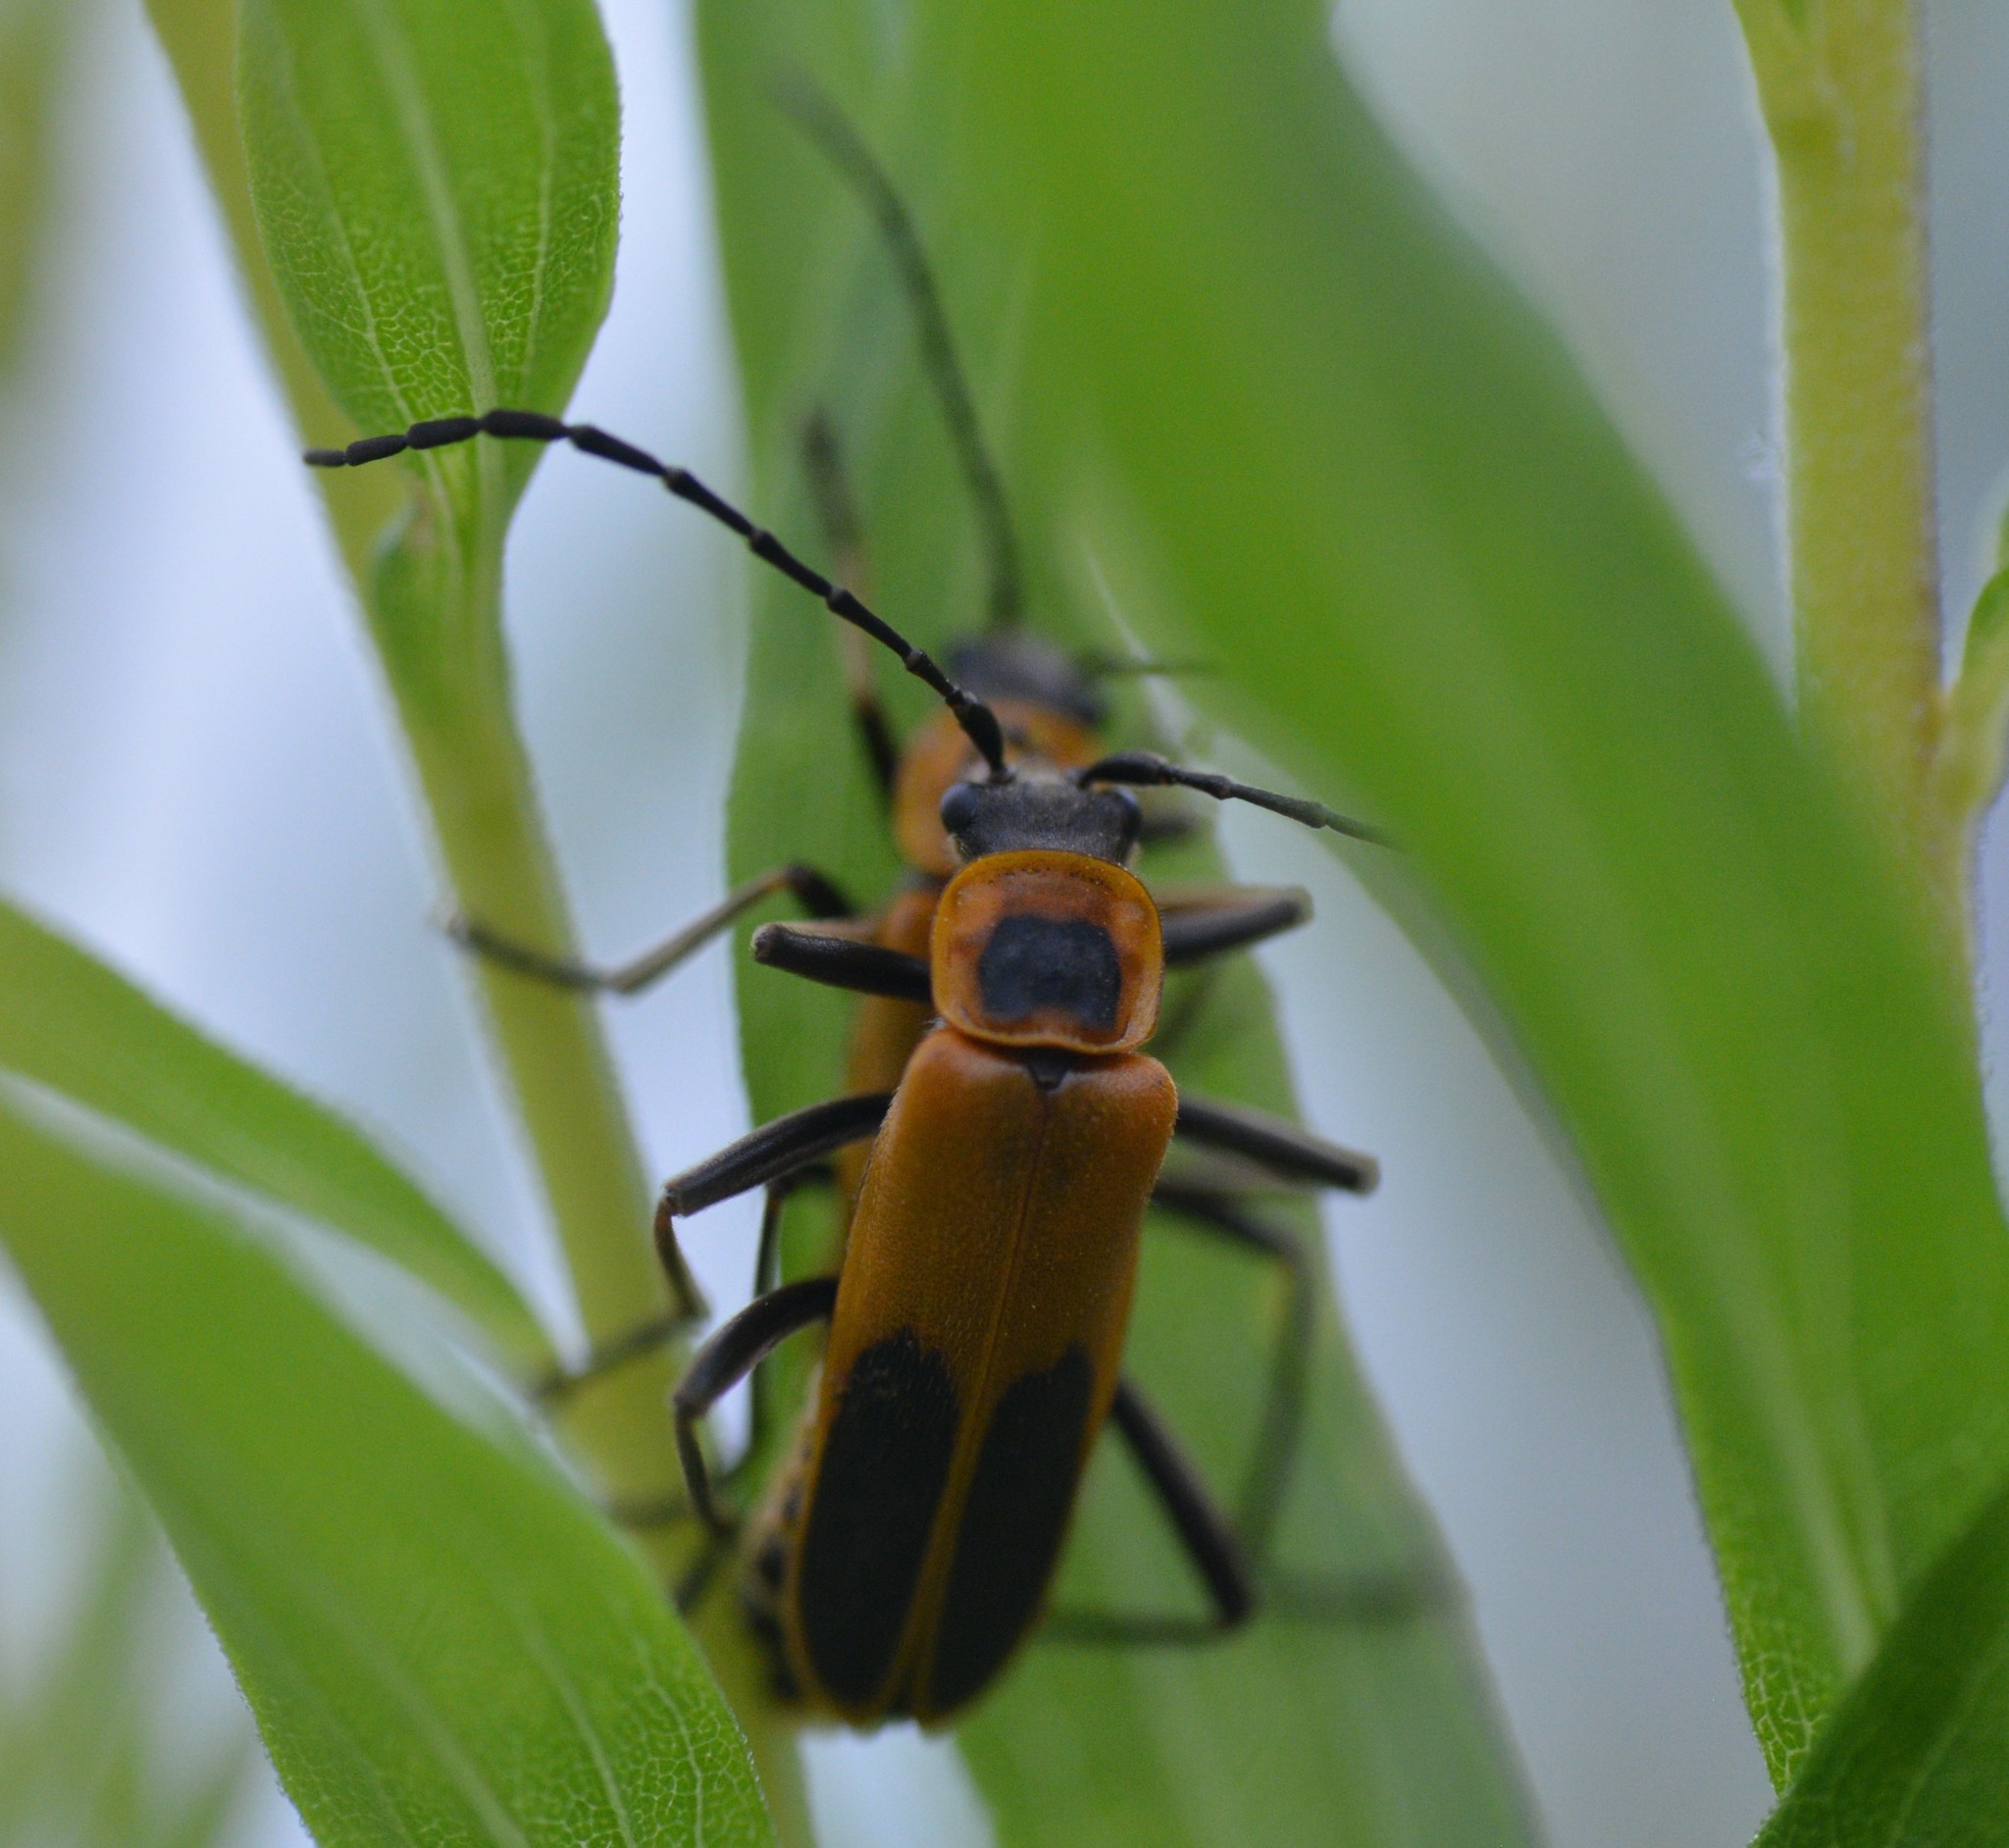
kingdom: Animalia
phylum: Arthropoda
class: Insecta
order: Coleoptera
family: Cantharidae
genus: Chauliognathus
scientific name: Chauliognathus pensylvanicus
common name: Goldenrod soldier beetle
